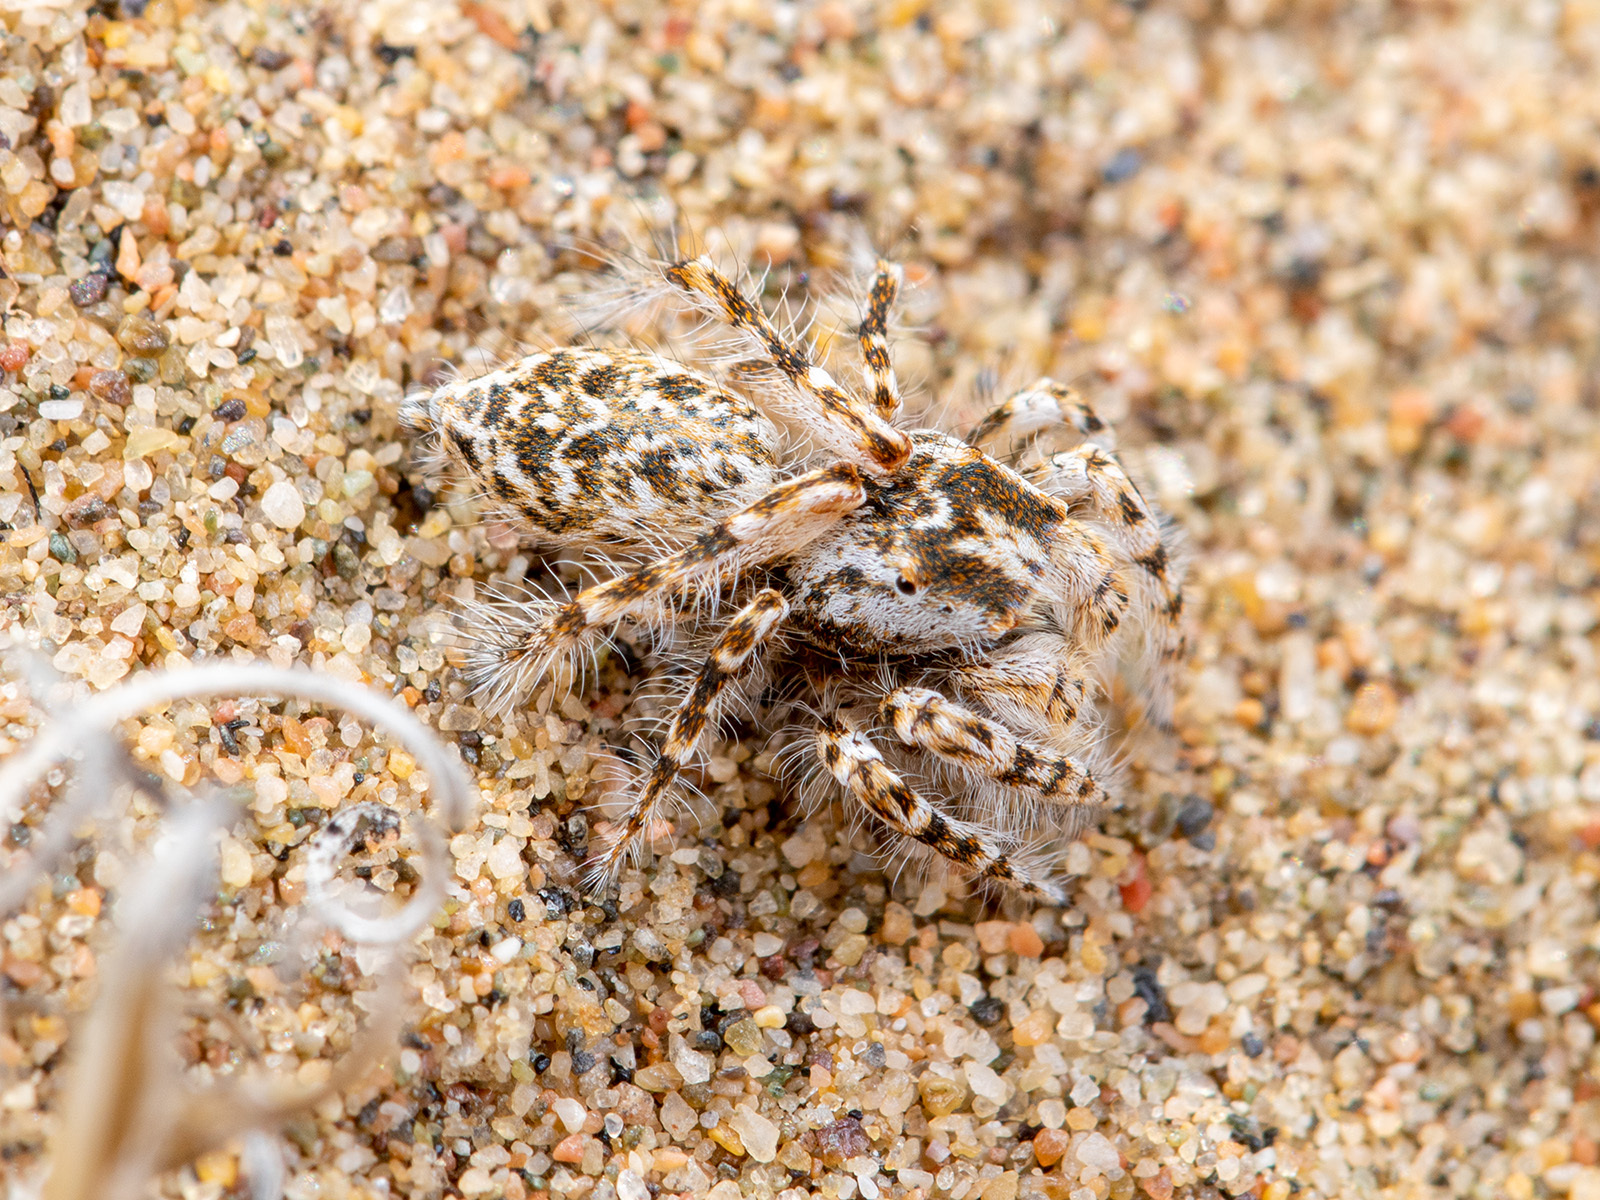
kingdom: Animalia
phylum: Arthropoda
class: Arachnida
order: Araneae
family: Salticidae
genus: Yllenus
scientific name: Yllenus turkestanicus
